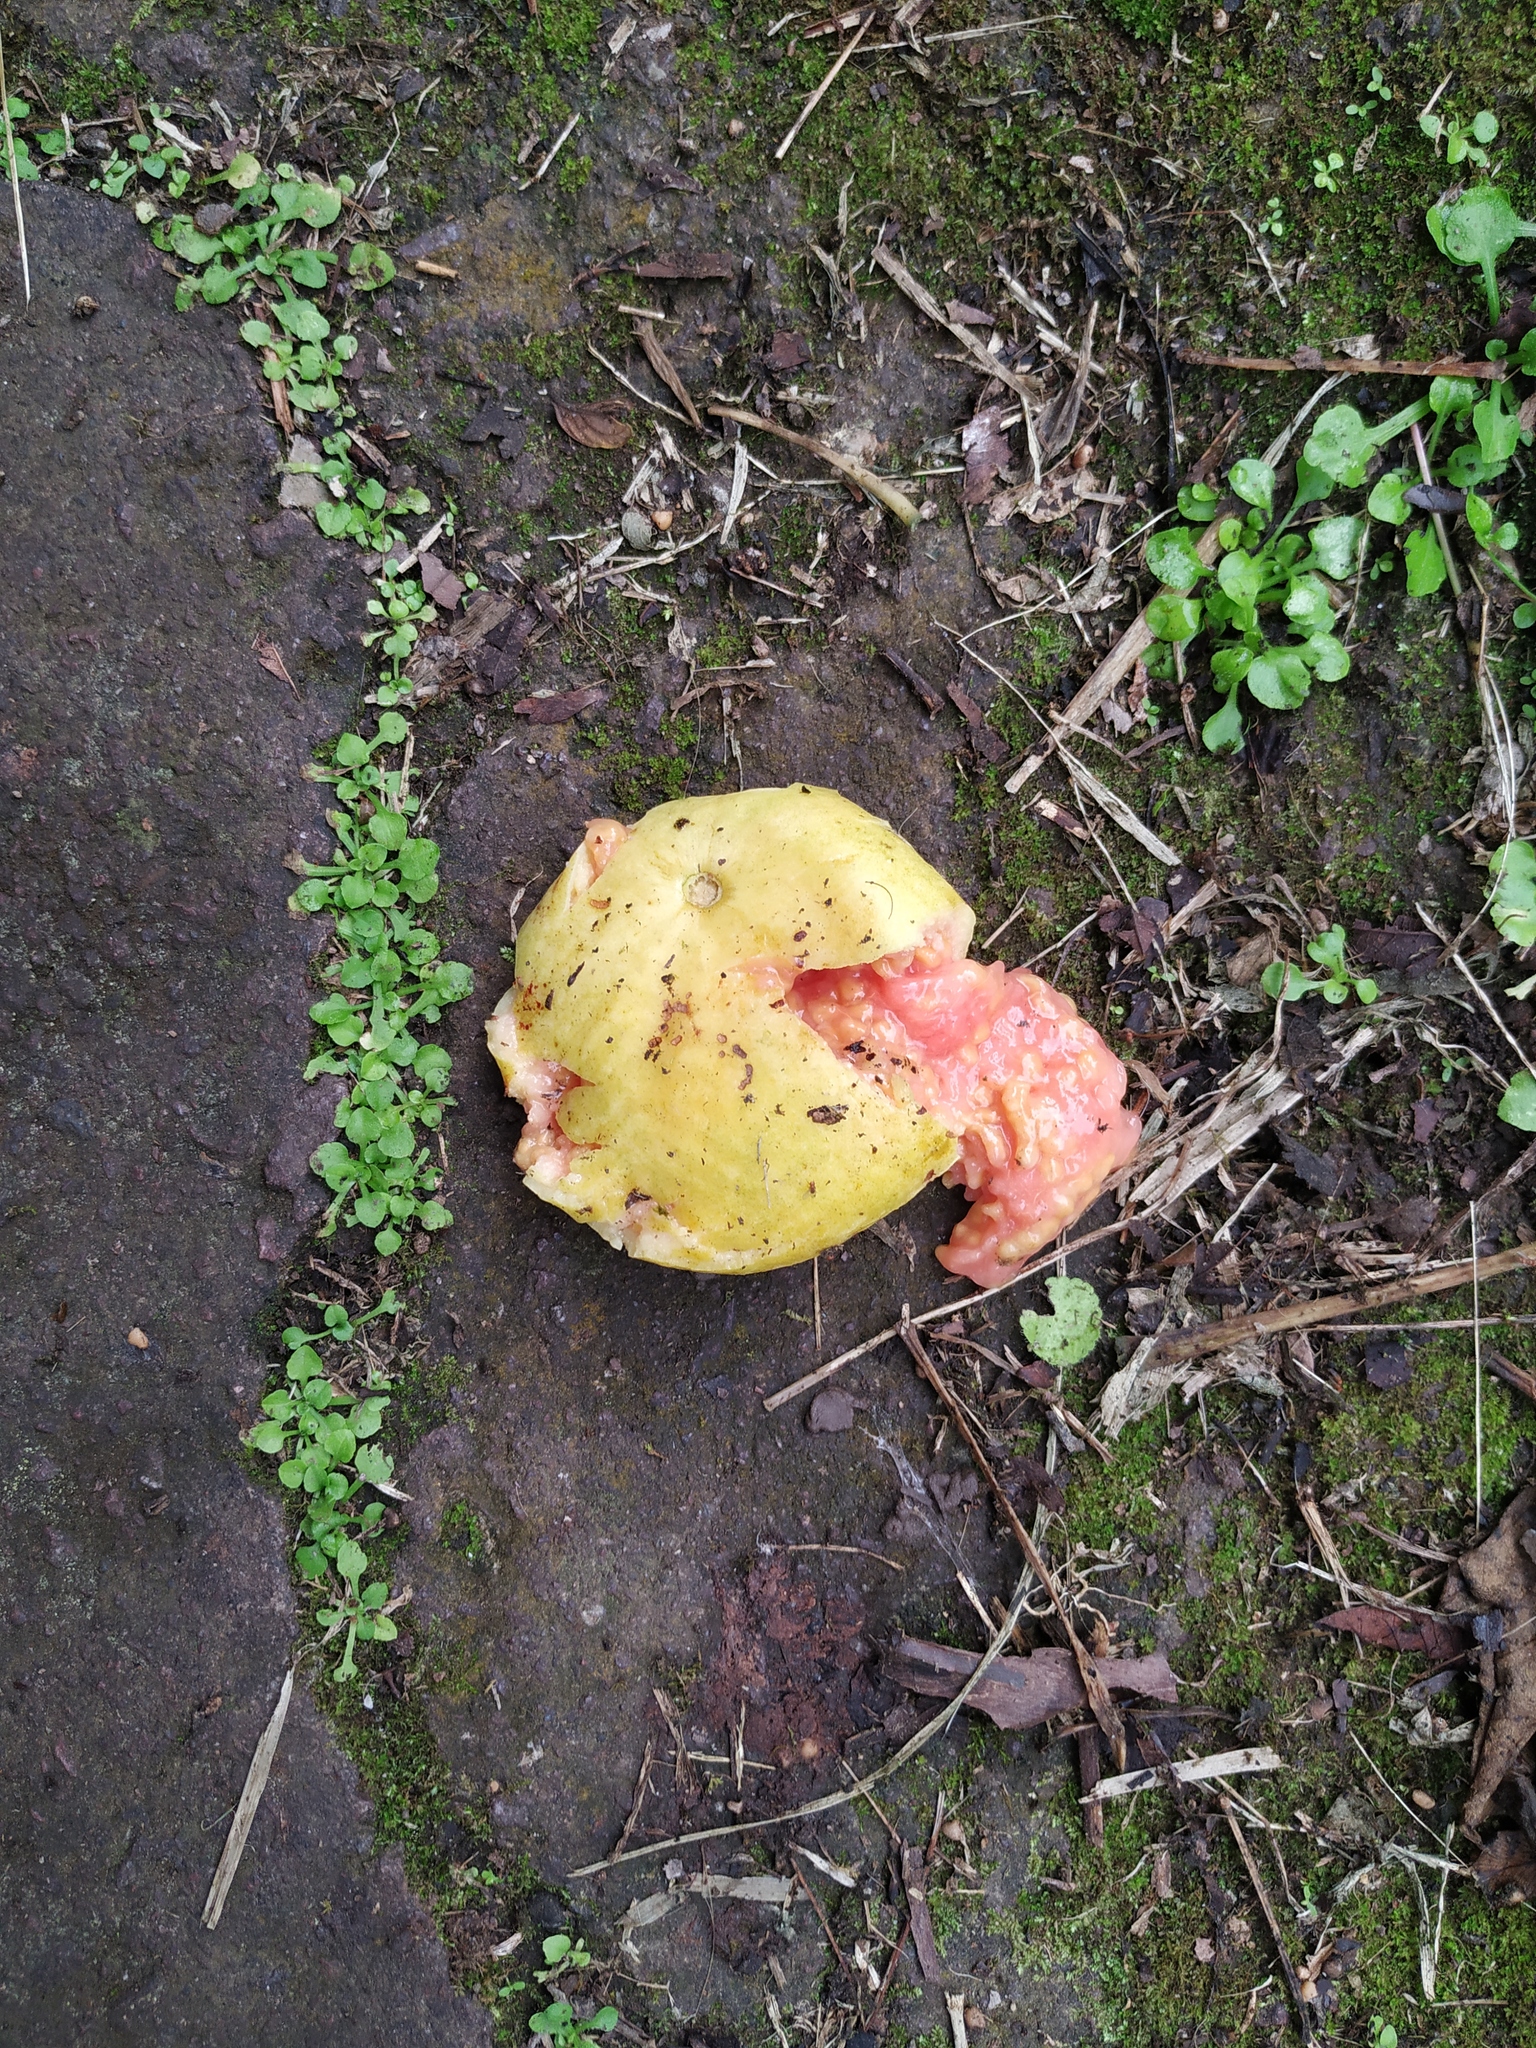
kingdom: Plantae
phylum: Tracheophyta
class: Magnoliopsida
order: Myrtales
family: Myrtaceae
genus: Psidium
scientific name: Psidium guajava
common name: Guava
